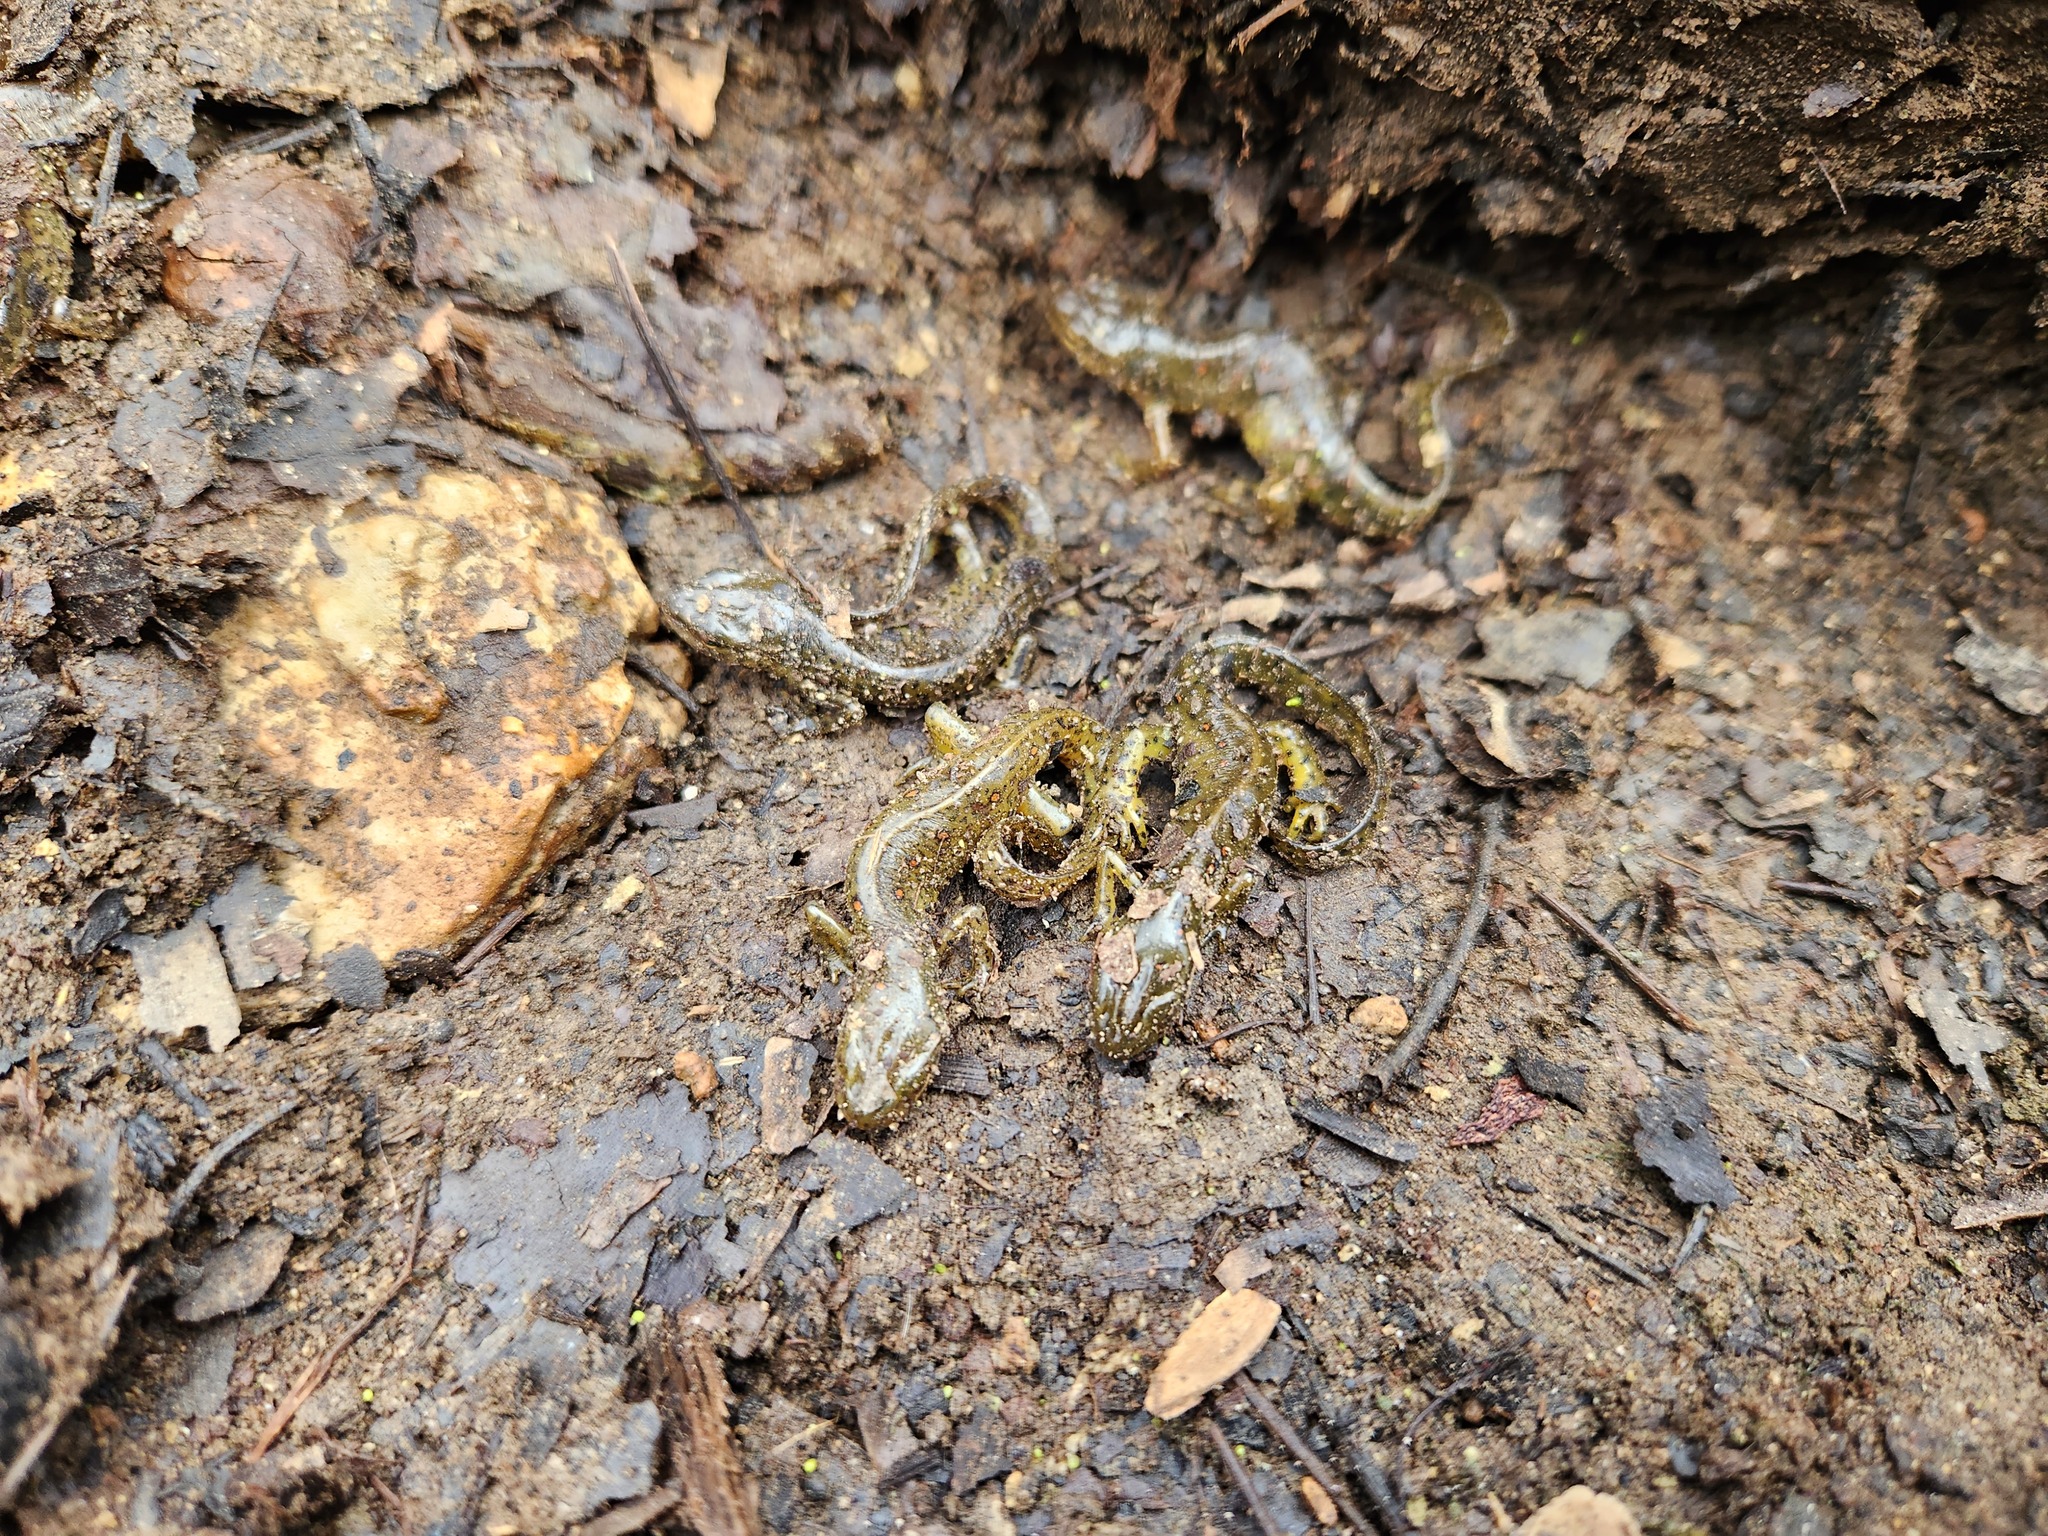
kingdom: Animalia
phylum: Chordata
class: Amphibia
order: Caudata
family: Salamandridae
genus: Notophthalmus
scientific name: Notophthalmus viridescens
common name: Eastern newt
